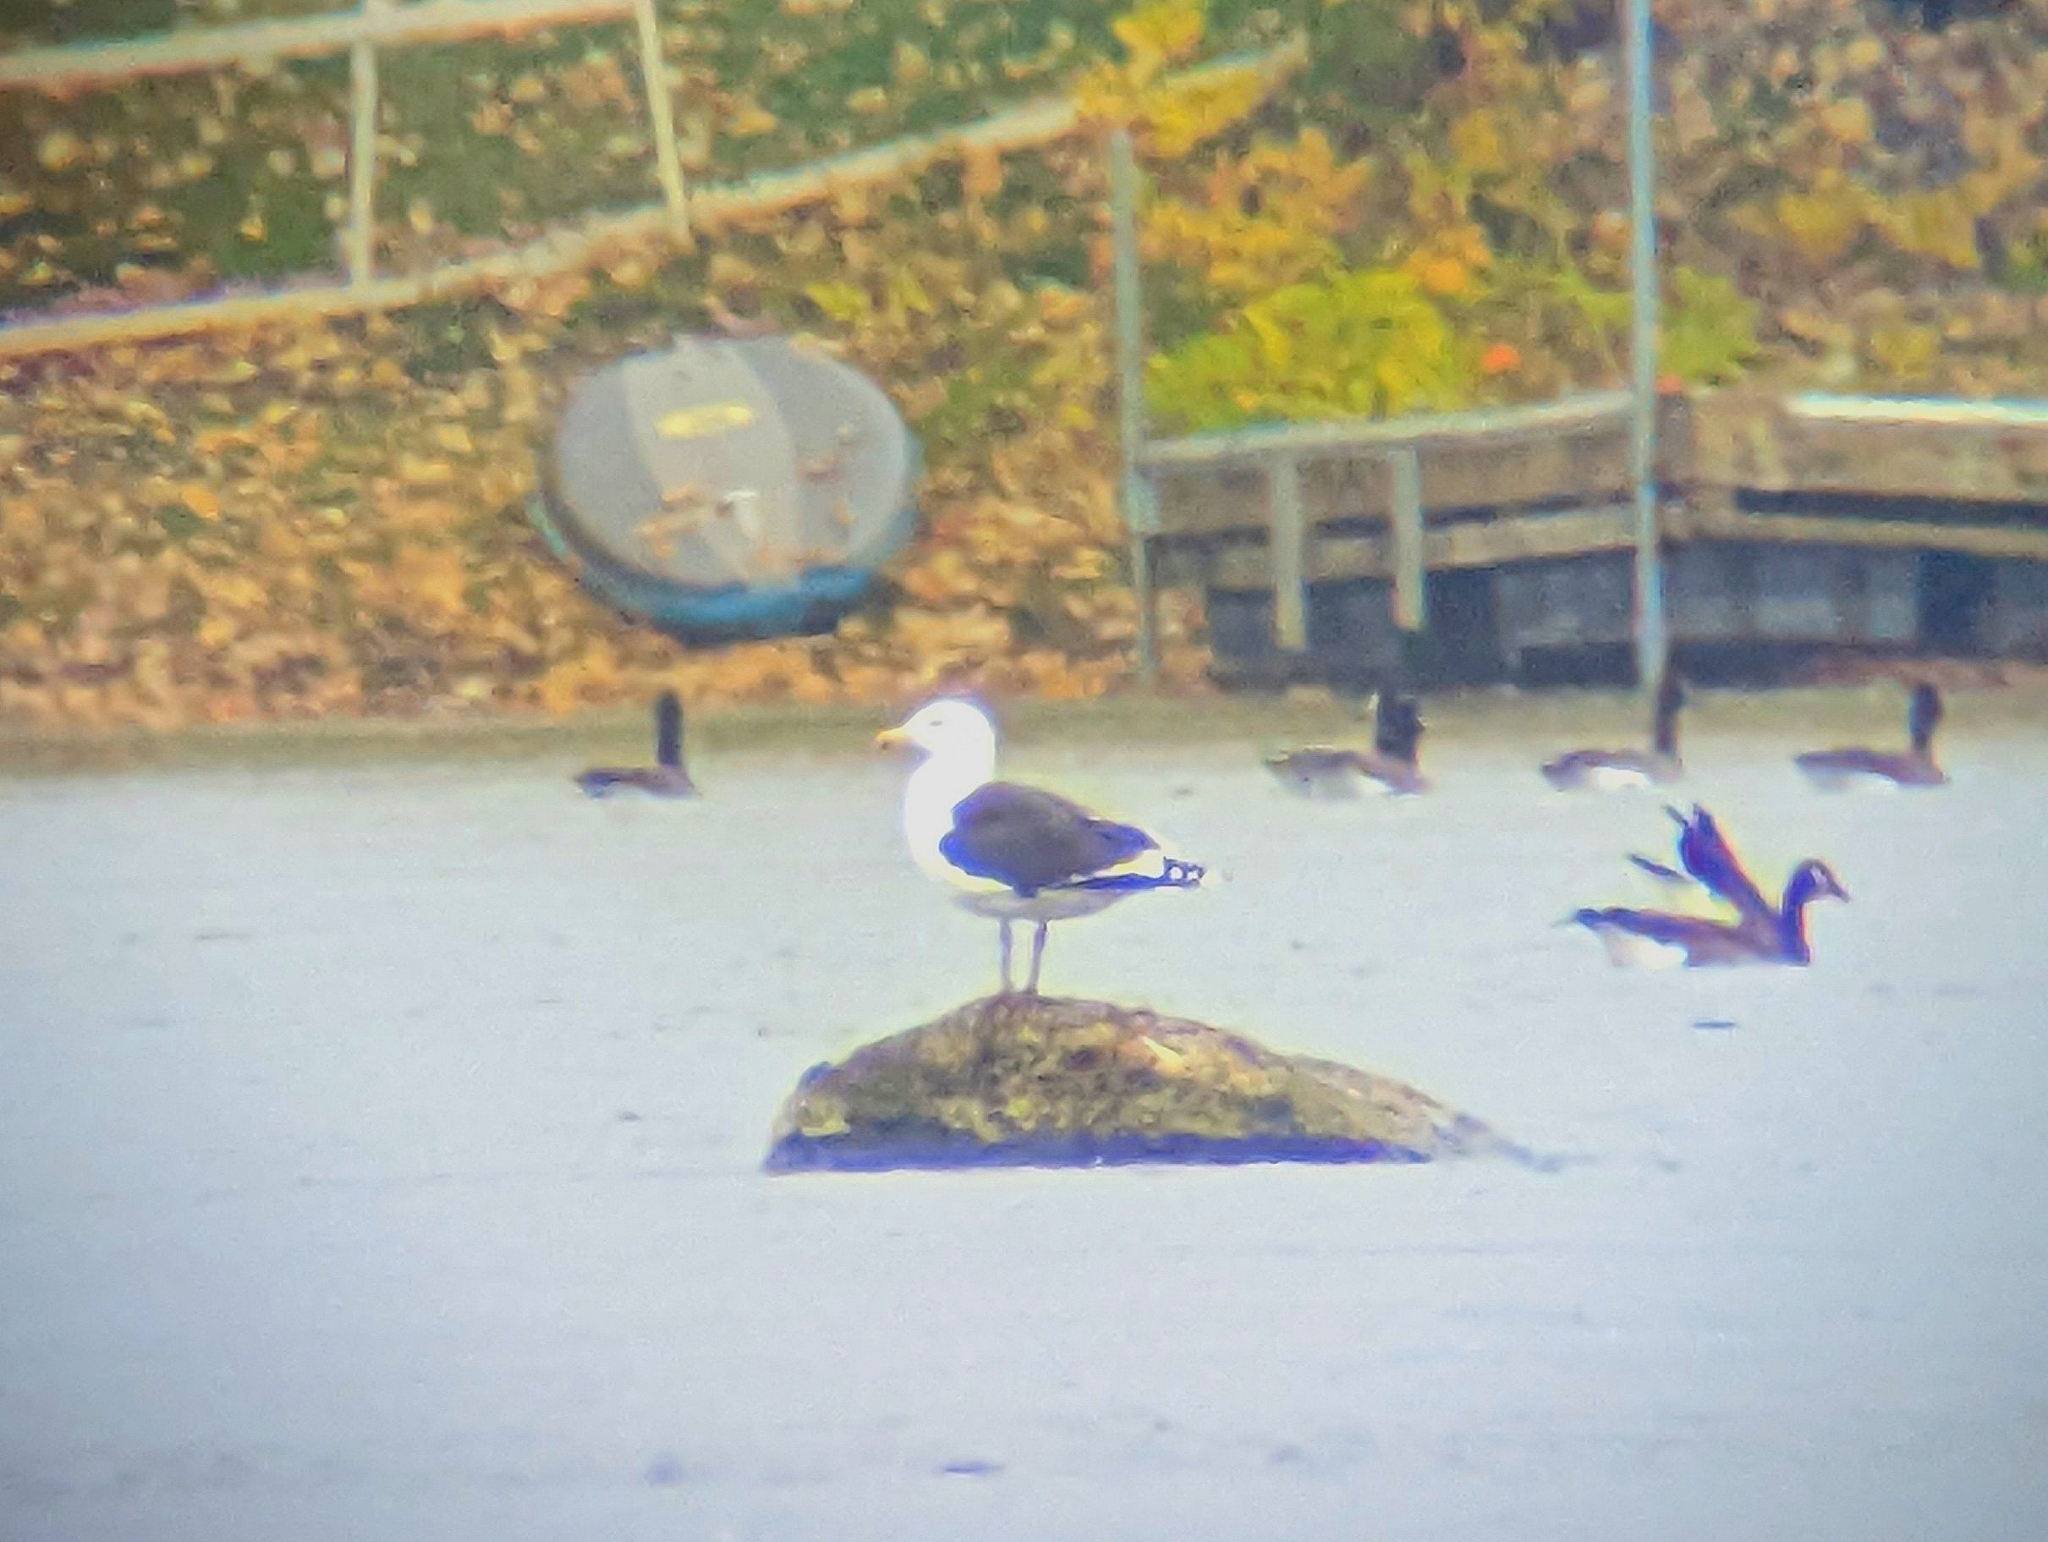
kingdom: Animalia
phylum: Chordata
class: Aves
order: Charadriiformes
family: Laridae
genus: Larus
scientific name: Larus marinus
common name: Great black-backed gull
